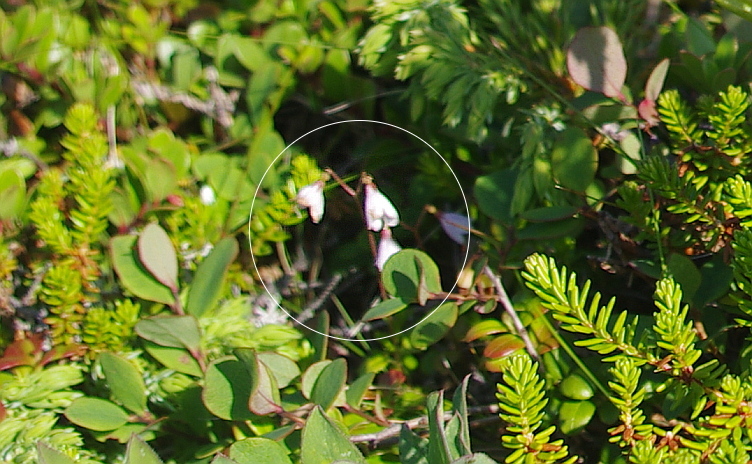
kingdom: Plantae
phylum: Tracheophyta
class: Magnoliopsida
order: Dipsacales
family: Caprifoliaceae
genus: Linnaea
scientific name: Linnaea borealis
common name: Twinflower
